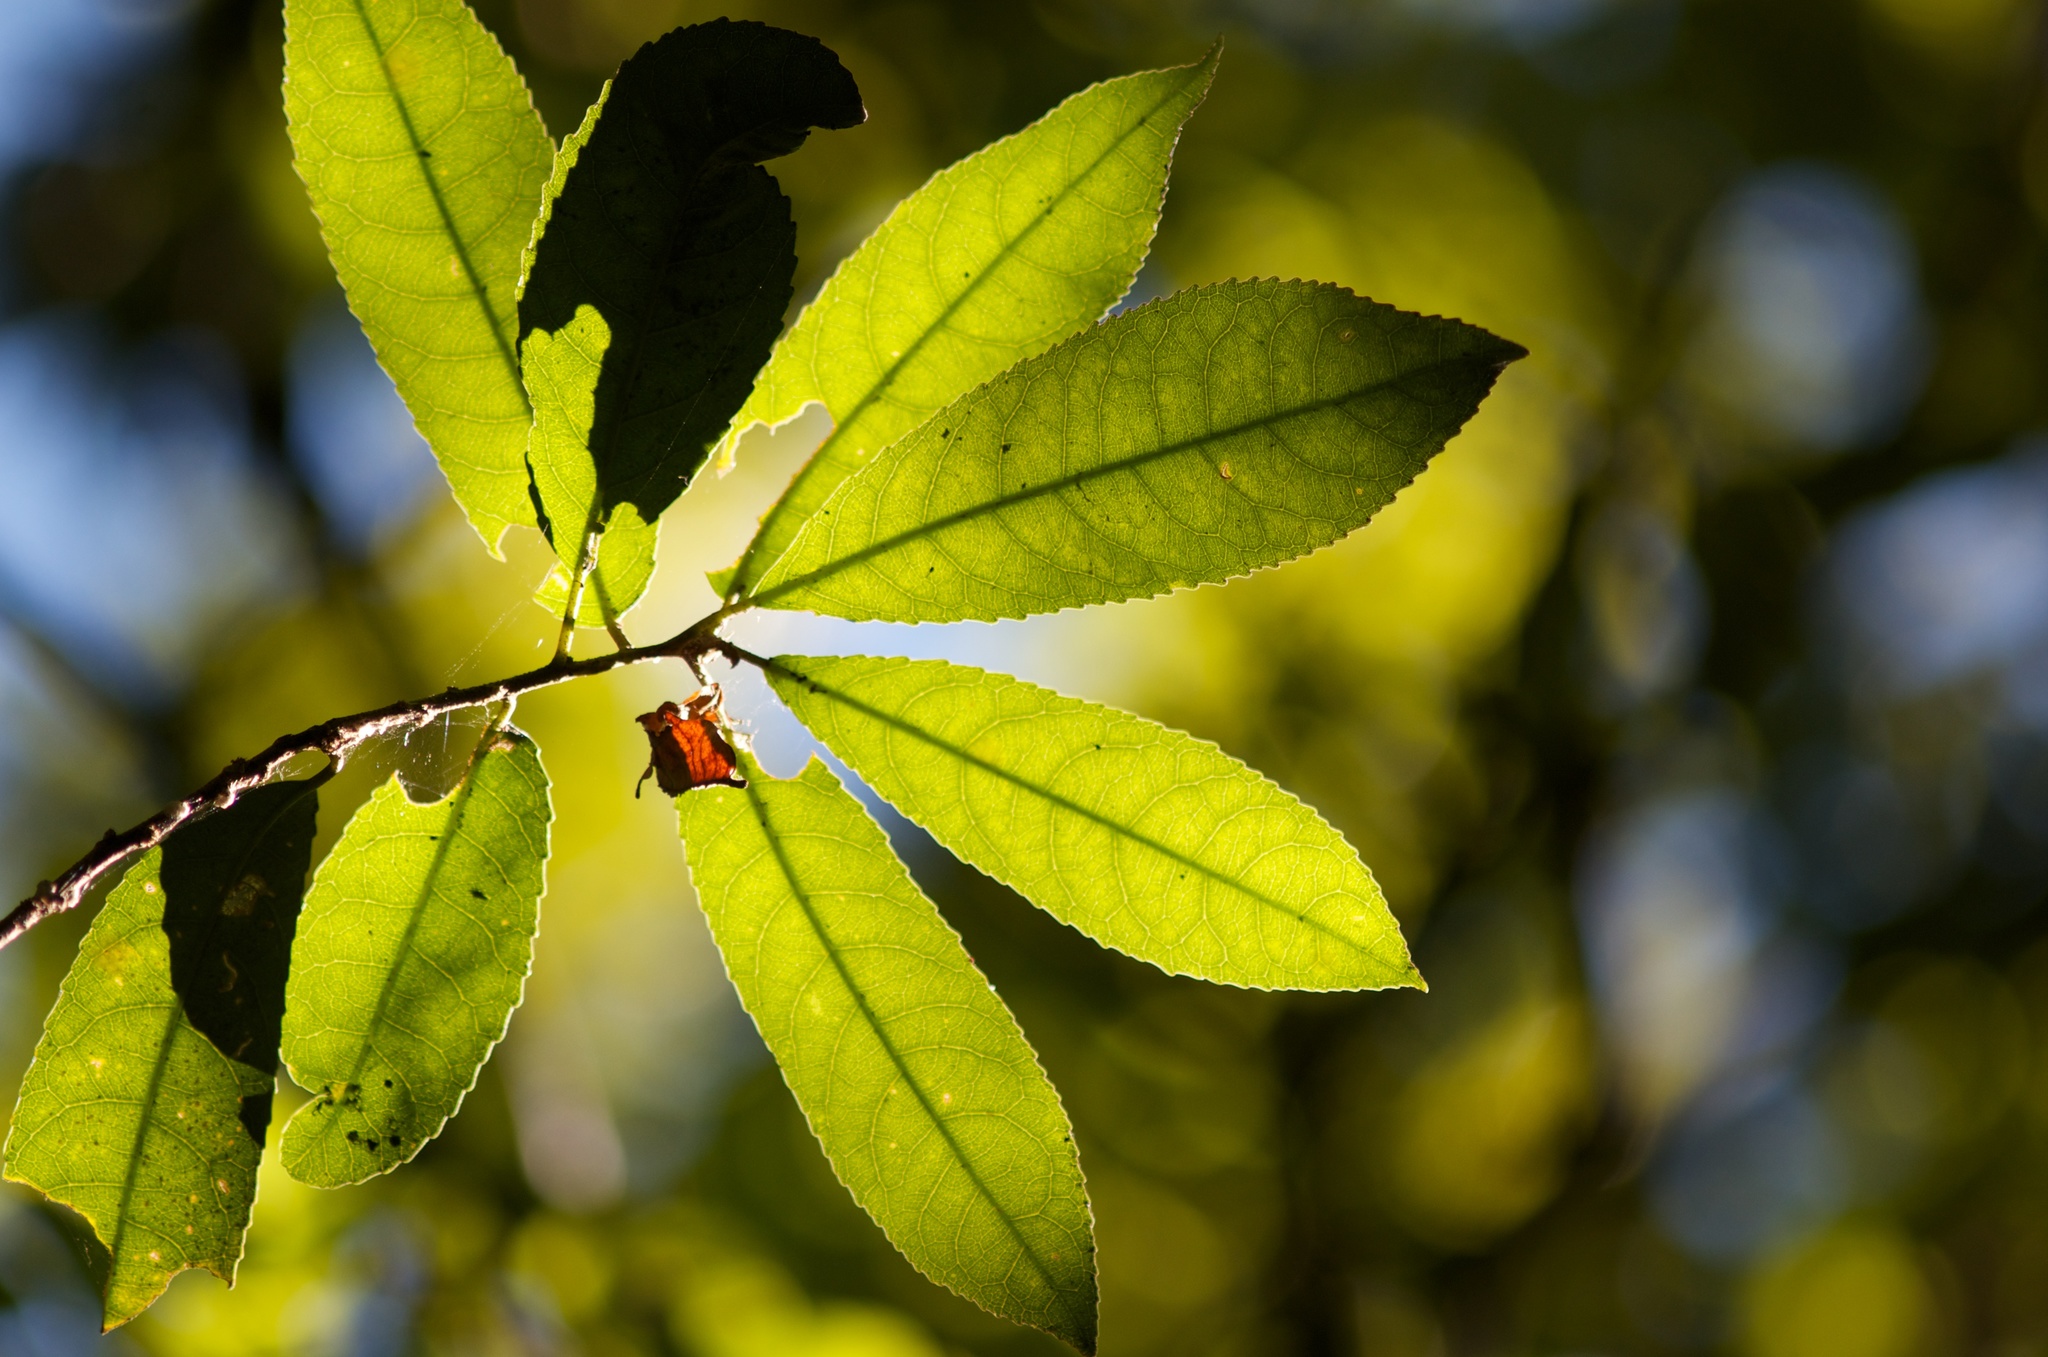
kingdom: Plantae
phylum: Tracheophyta
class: Magnoliopsida
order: Malpighiales
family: Violaceae
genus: Melicytus
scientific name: Melicytus ramiflorus
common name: Mahoe
